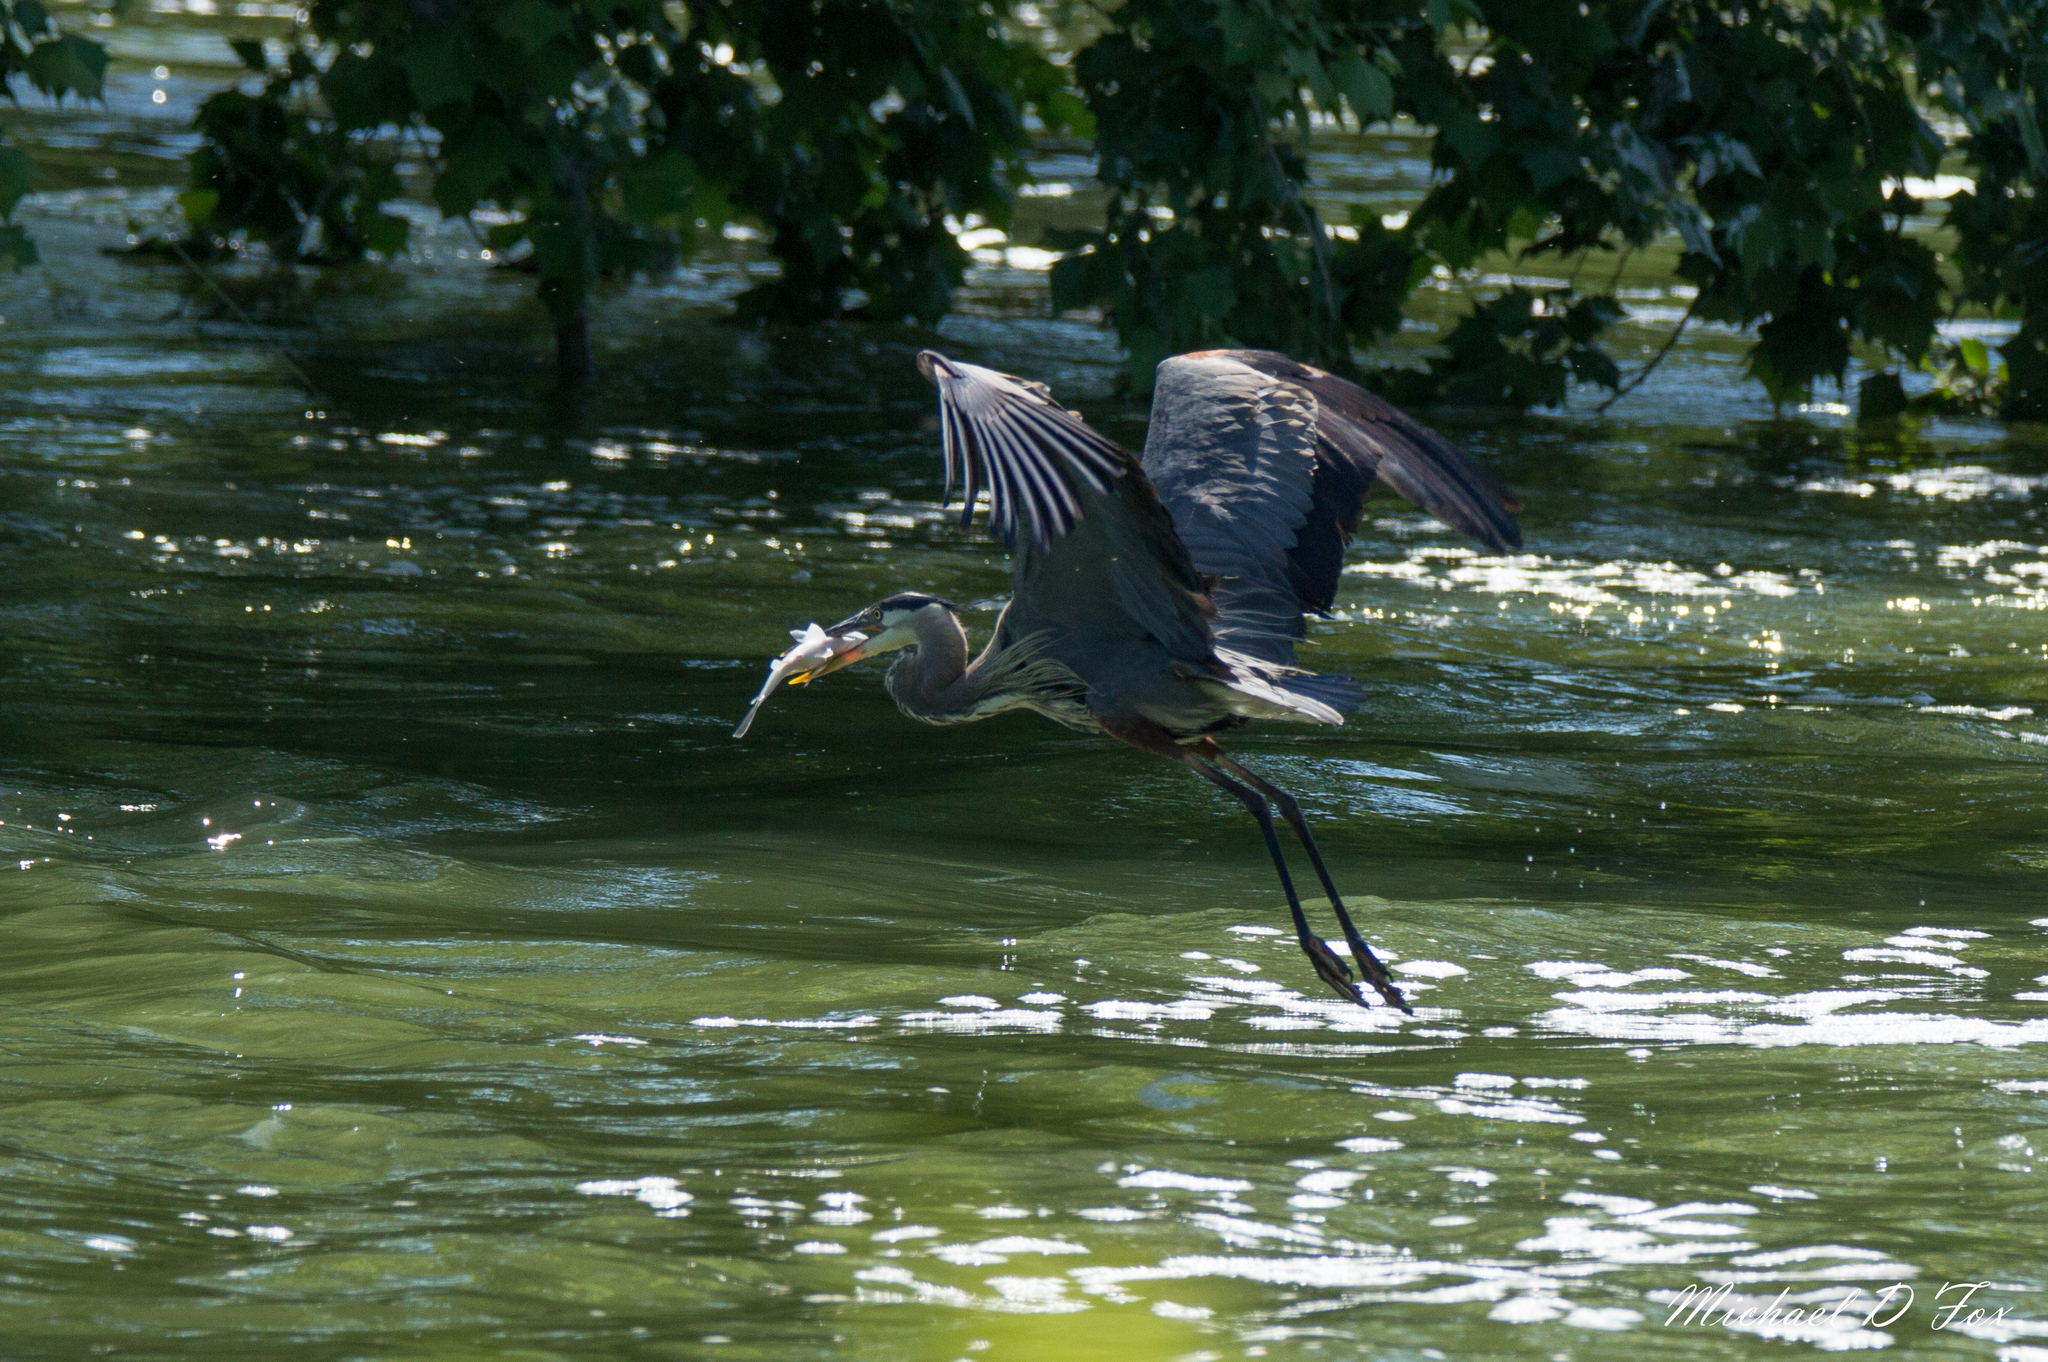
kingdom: Animalia
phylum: Chordata
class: Aves
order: Pelecaniformes
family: Ardeidae
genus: Ardea
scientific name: Ardea herodias
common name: Great blue heron
